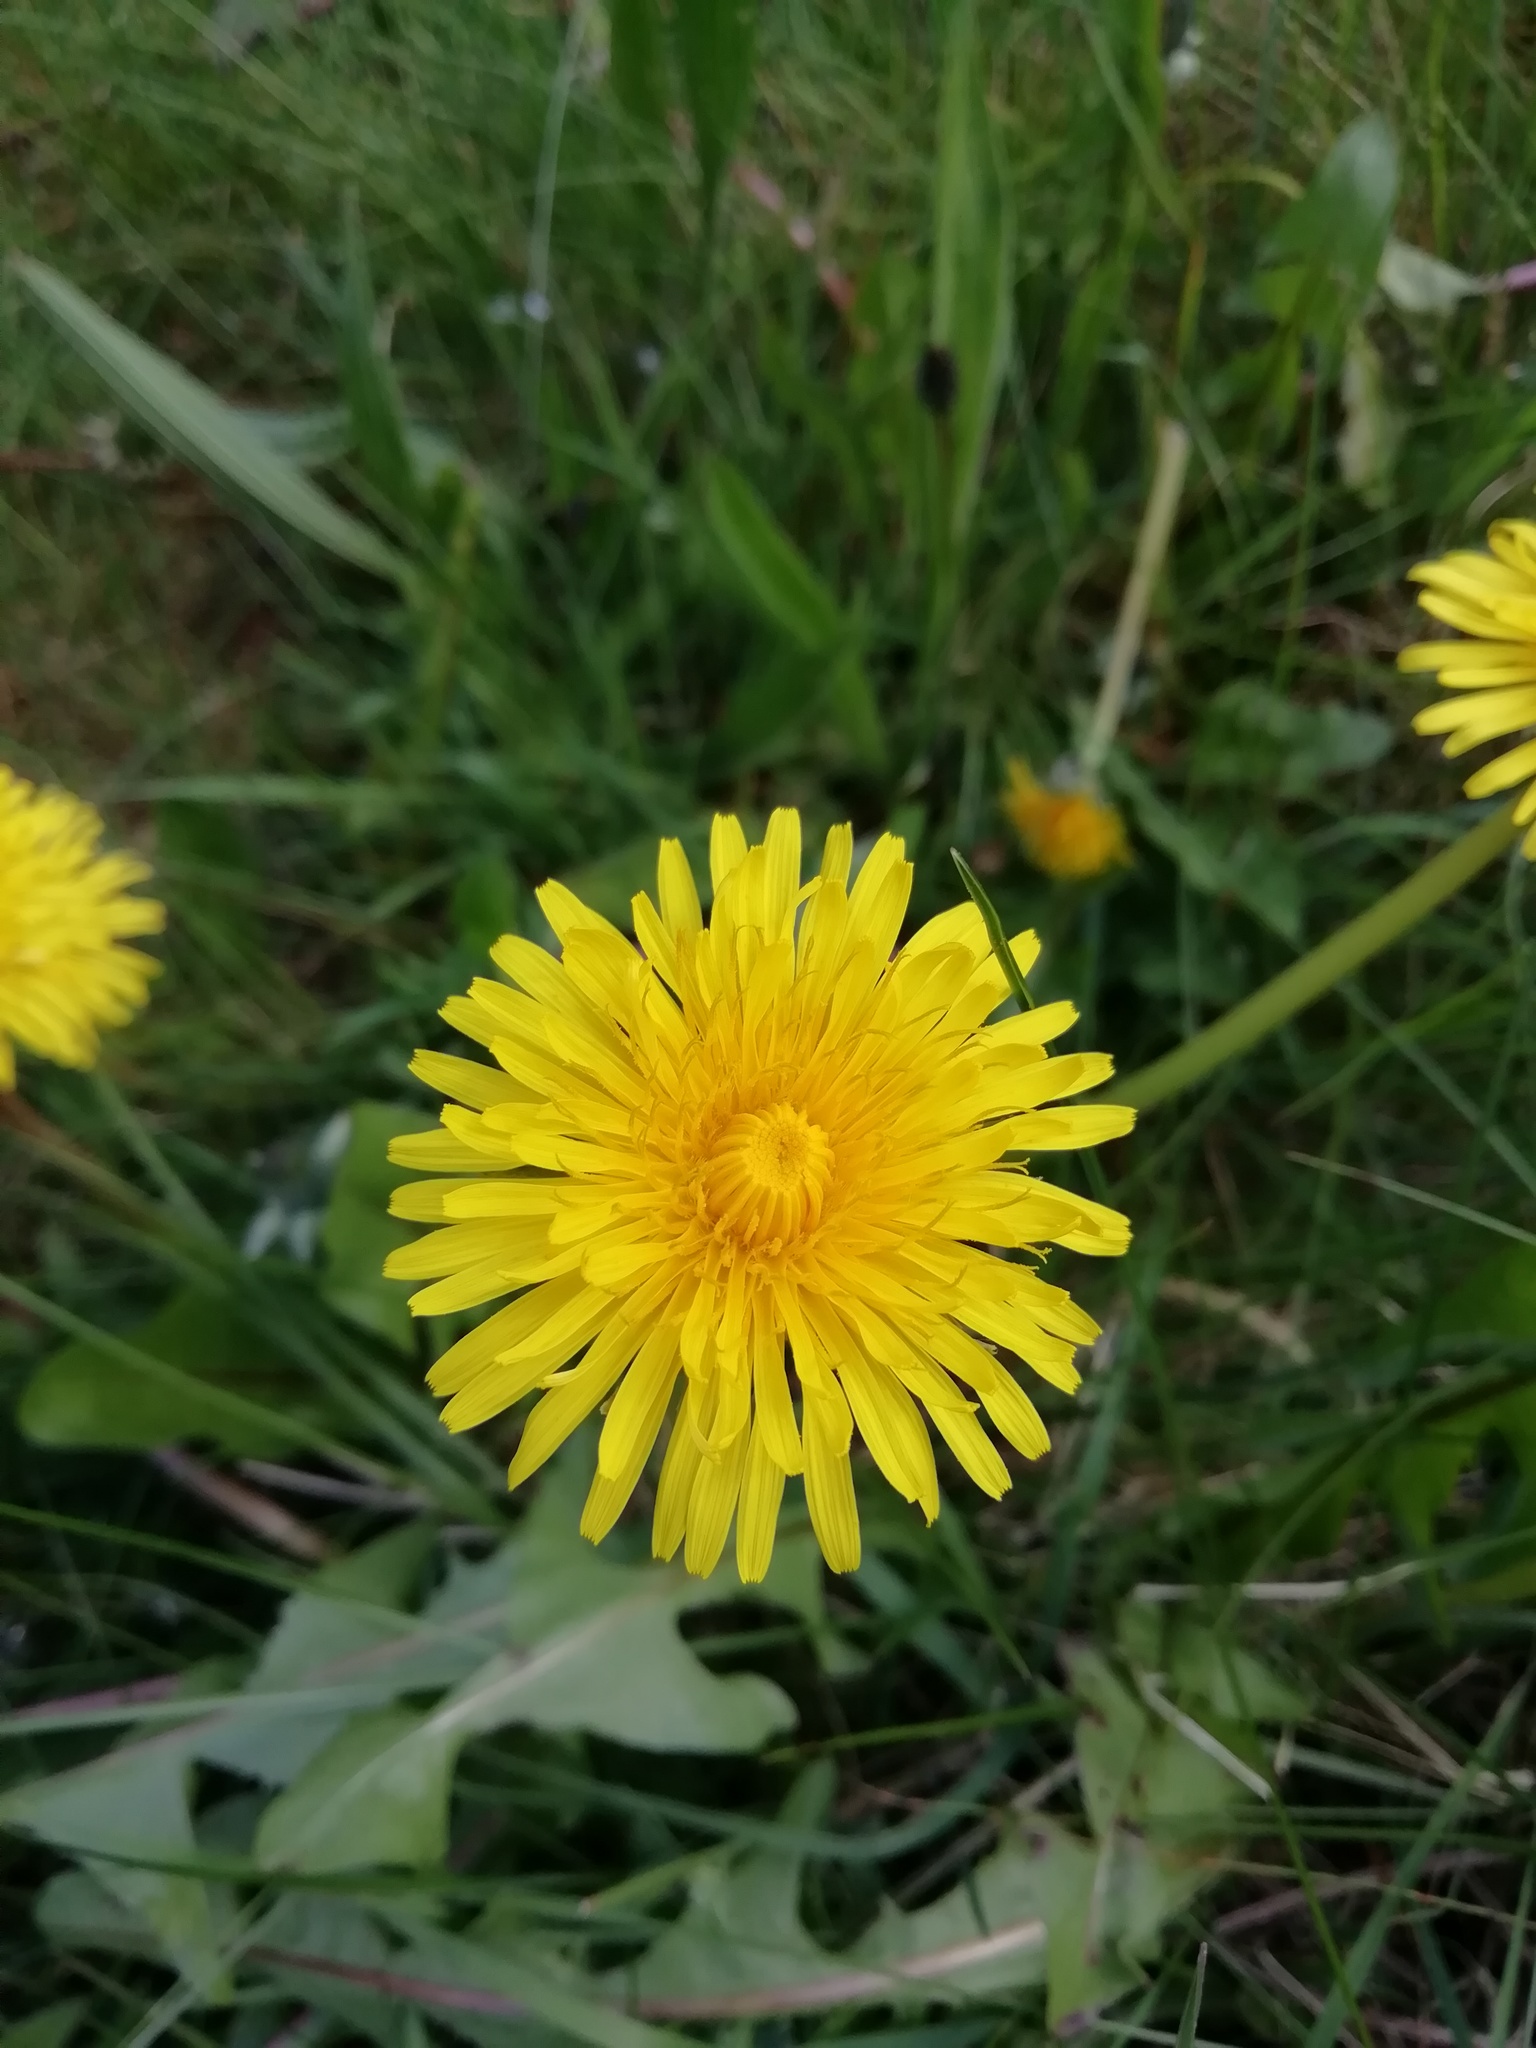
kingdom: Plantae
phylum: Tracheophyta
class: Magnoliopsida
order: Asterales
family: Asteraceae
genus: Taraxacum
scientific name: Taraxacum officinale
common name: Common dandelion
